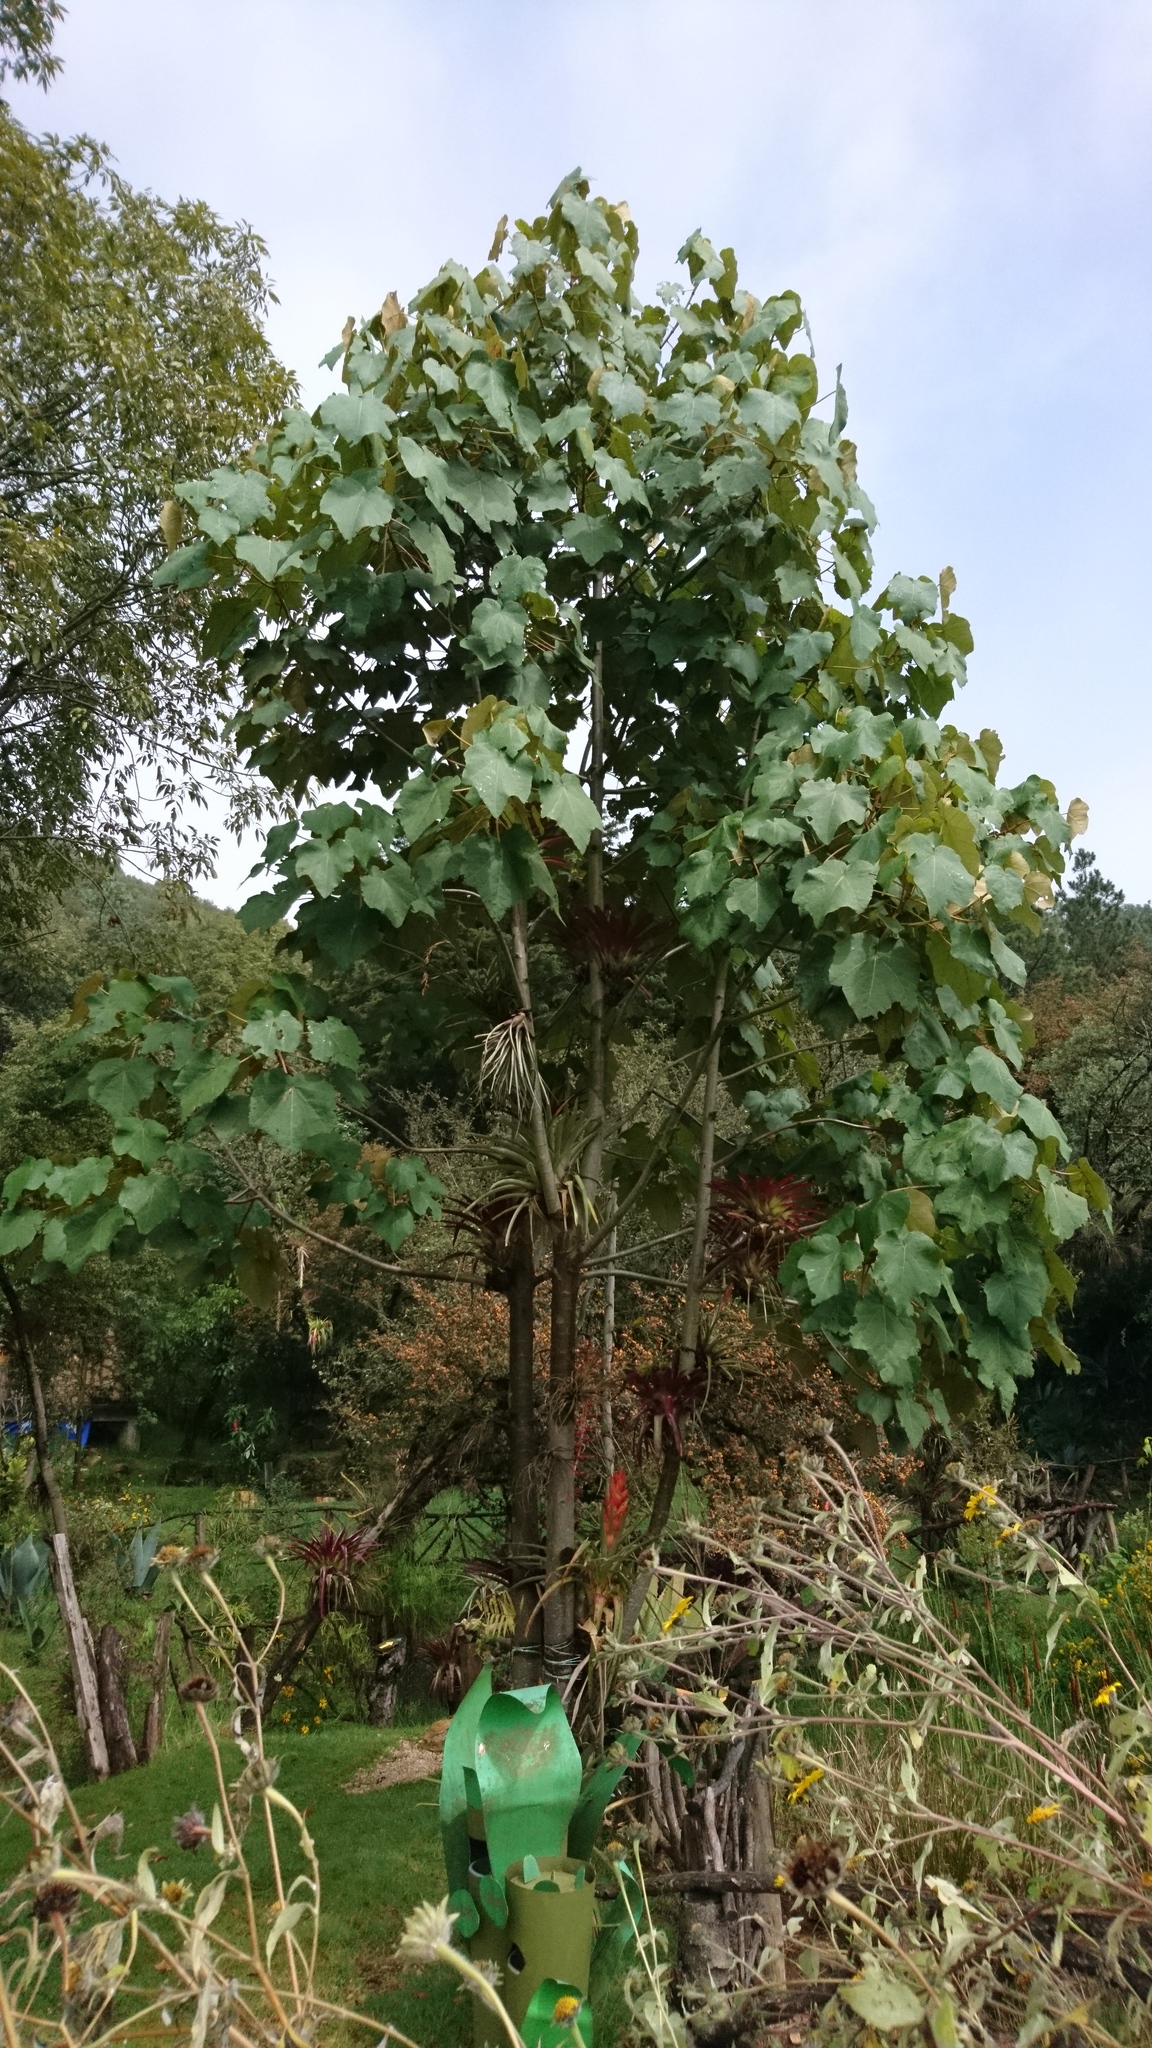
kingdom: Plantae
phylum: Tracheophyta
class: Magnoliopsida
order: Malvales
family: Malvaceae
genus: Chiranthodendron
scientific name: Chiranthodendron pentadactylon
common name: Mexican-hat-plant
